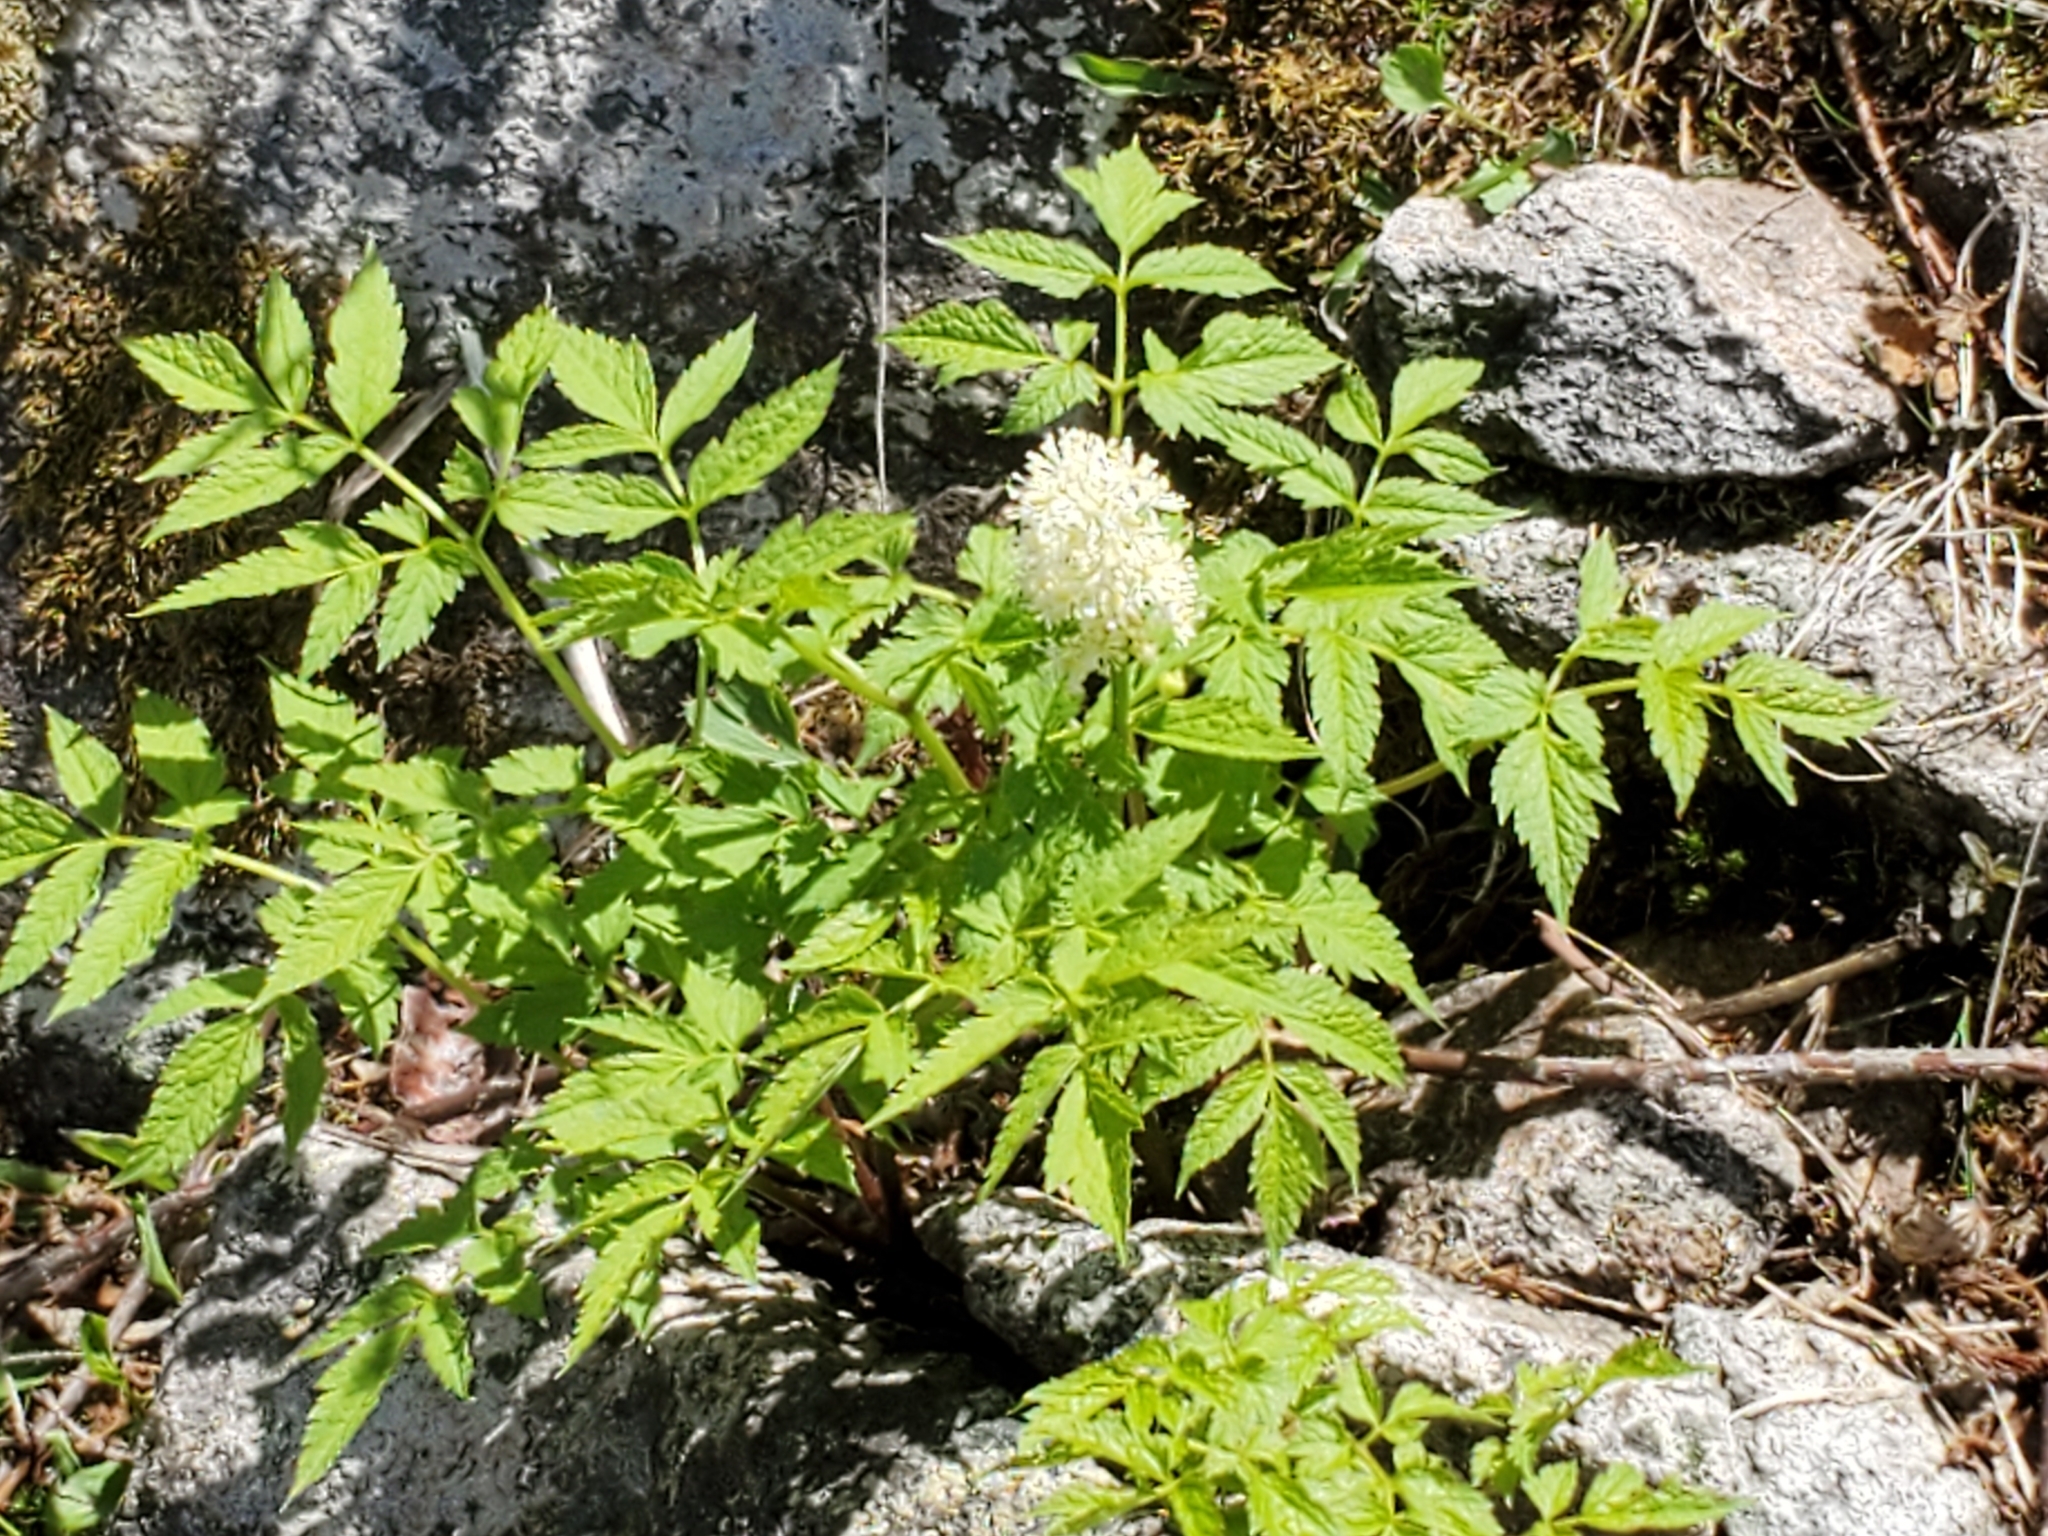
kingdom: Plantae
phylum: Tracheophyta
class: Magnoliopsida
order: Ranunculales
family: Ranunculaceae
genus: Actaea
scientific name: Actaea rubra
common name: Red baneberry
